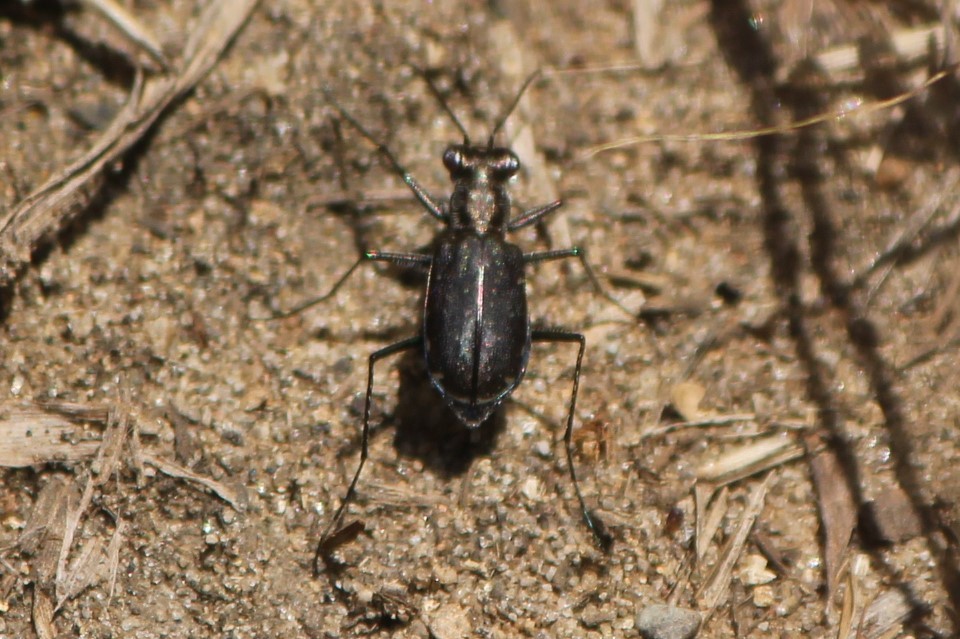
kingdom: Animalia
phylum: Arthropoda
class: Insecta
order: Coleoptera
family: Carabidae
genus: Cicindela
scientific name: Cicindela punctulata
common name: Punctured tiger beetle
